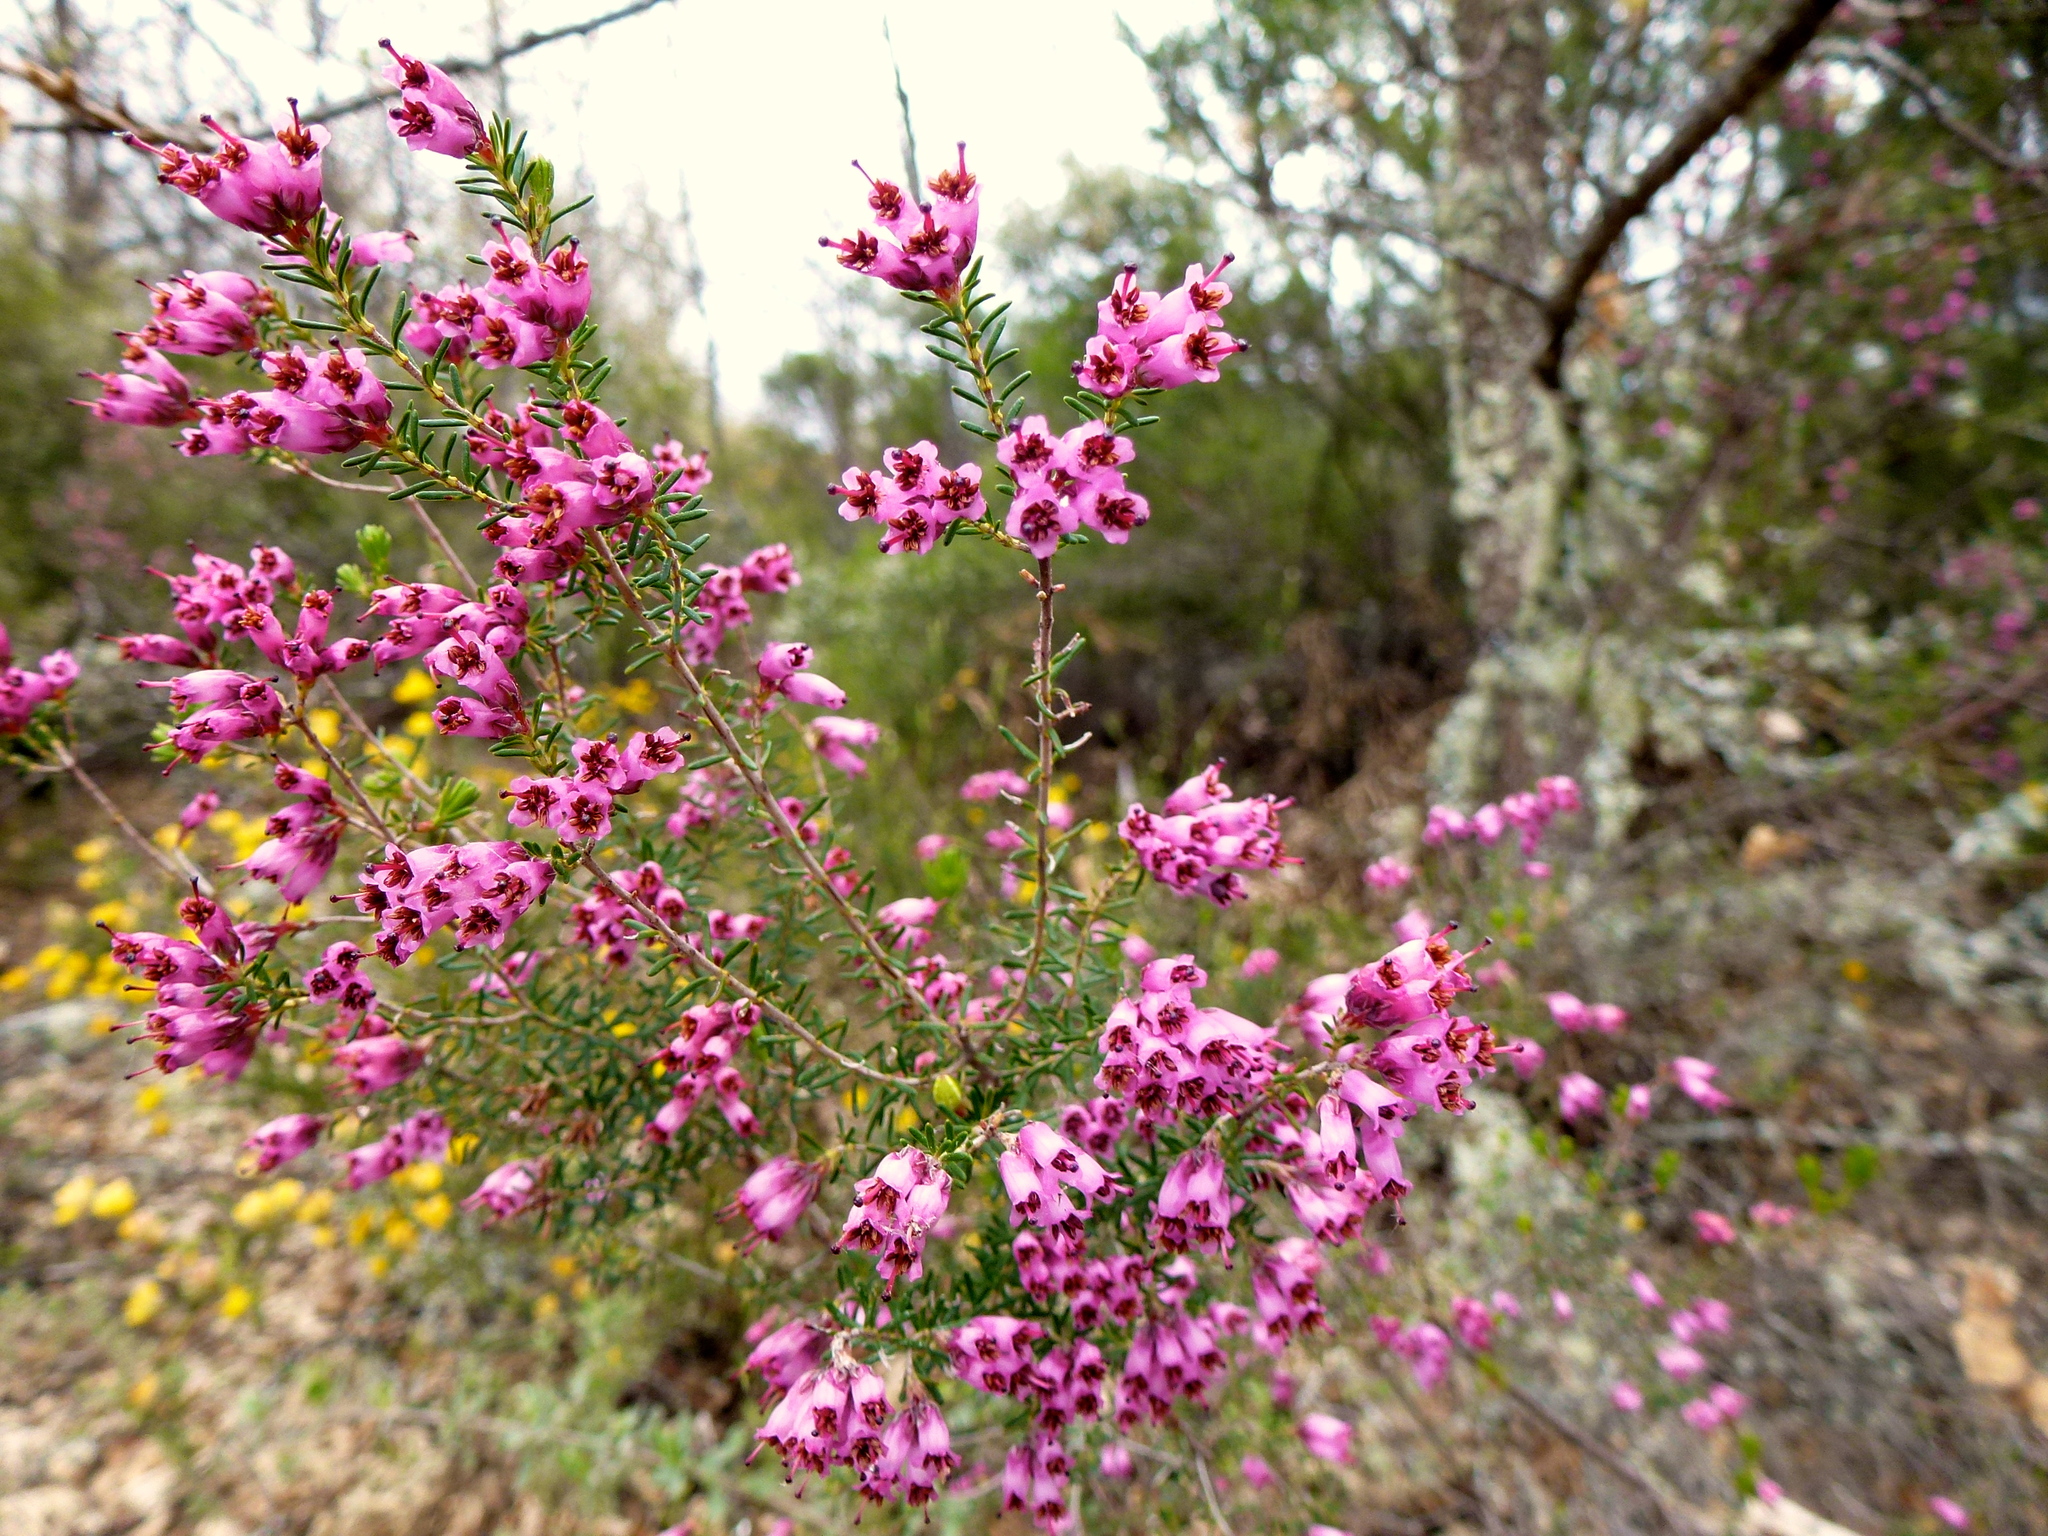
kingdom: Plantae
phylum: Tracheophyta
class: Magnoliopsida
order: Ericales
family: Ericaceae
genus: Erica
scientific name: Erica australis
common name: Spanish heath
